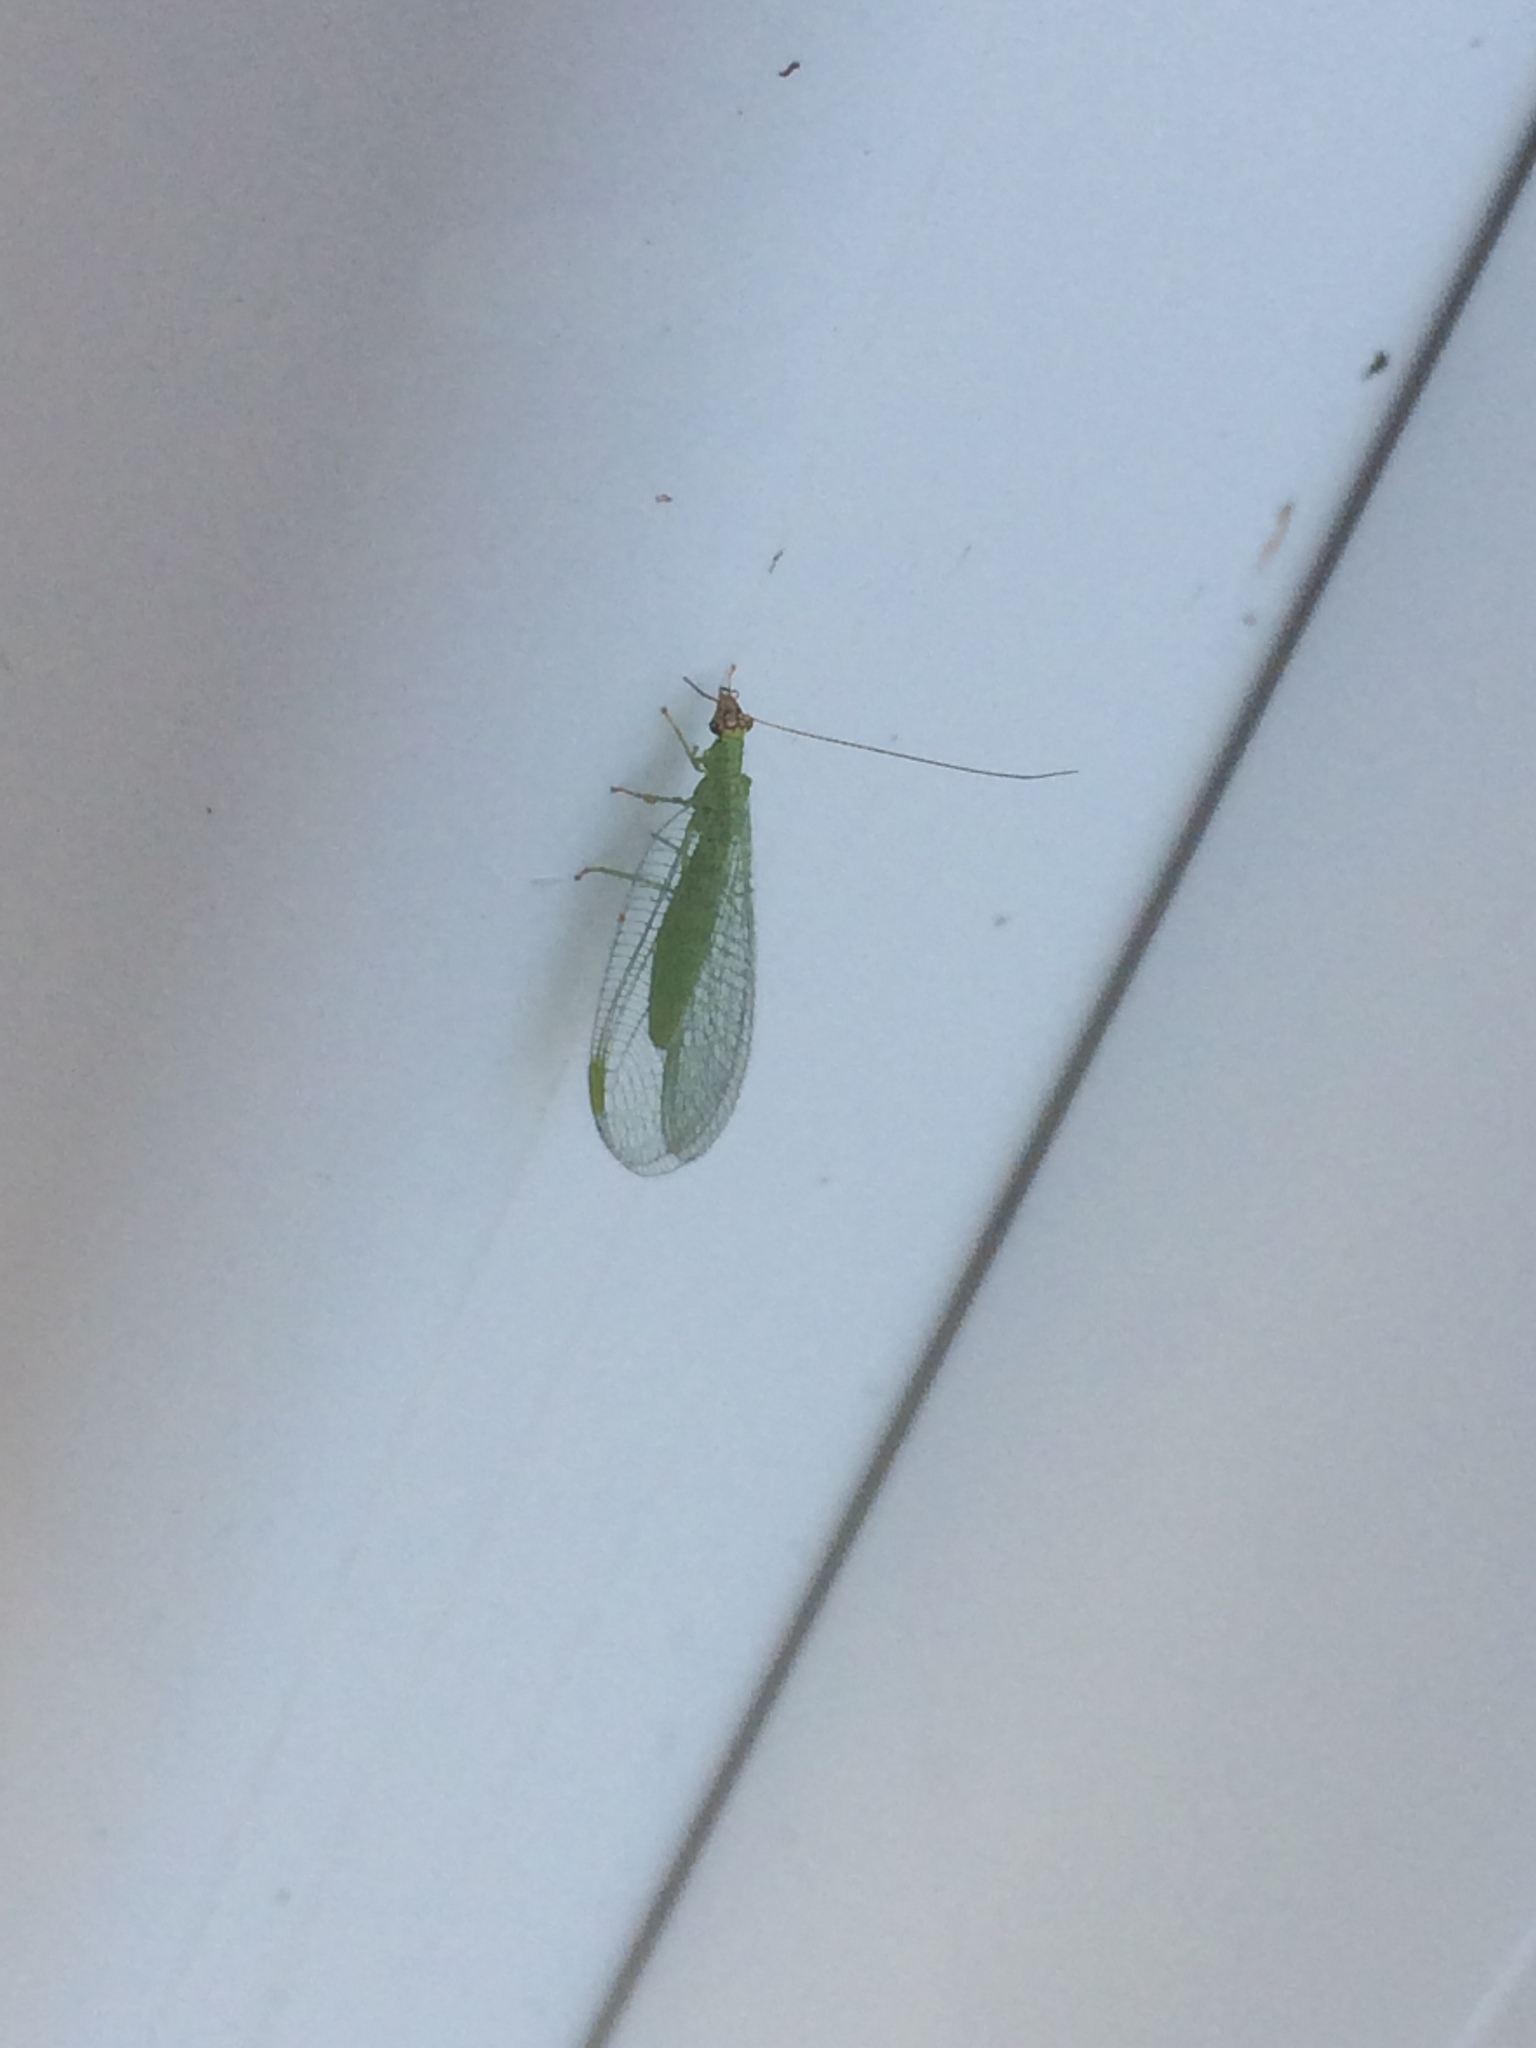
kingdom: Animalia
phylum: Arthropoda
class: Insecta
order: Neuroptera
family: Chrysopidae
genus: Chrysopa
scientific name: Chrysopa oculata
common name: Golden-eyed lacewing
